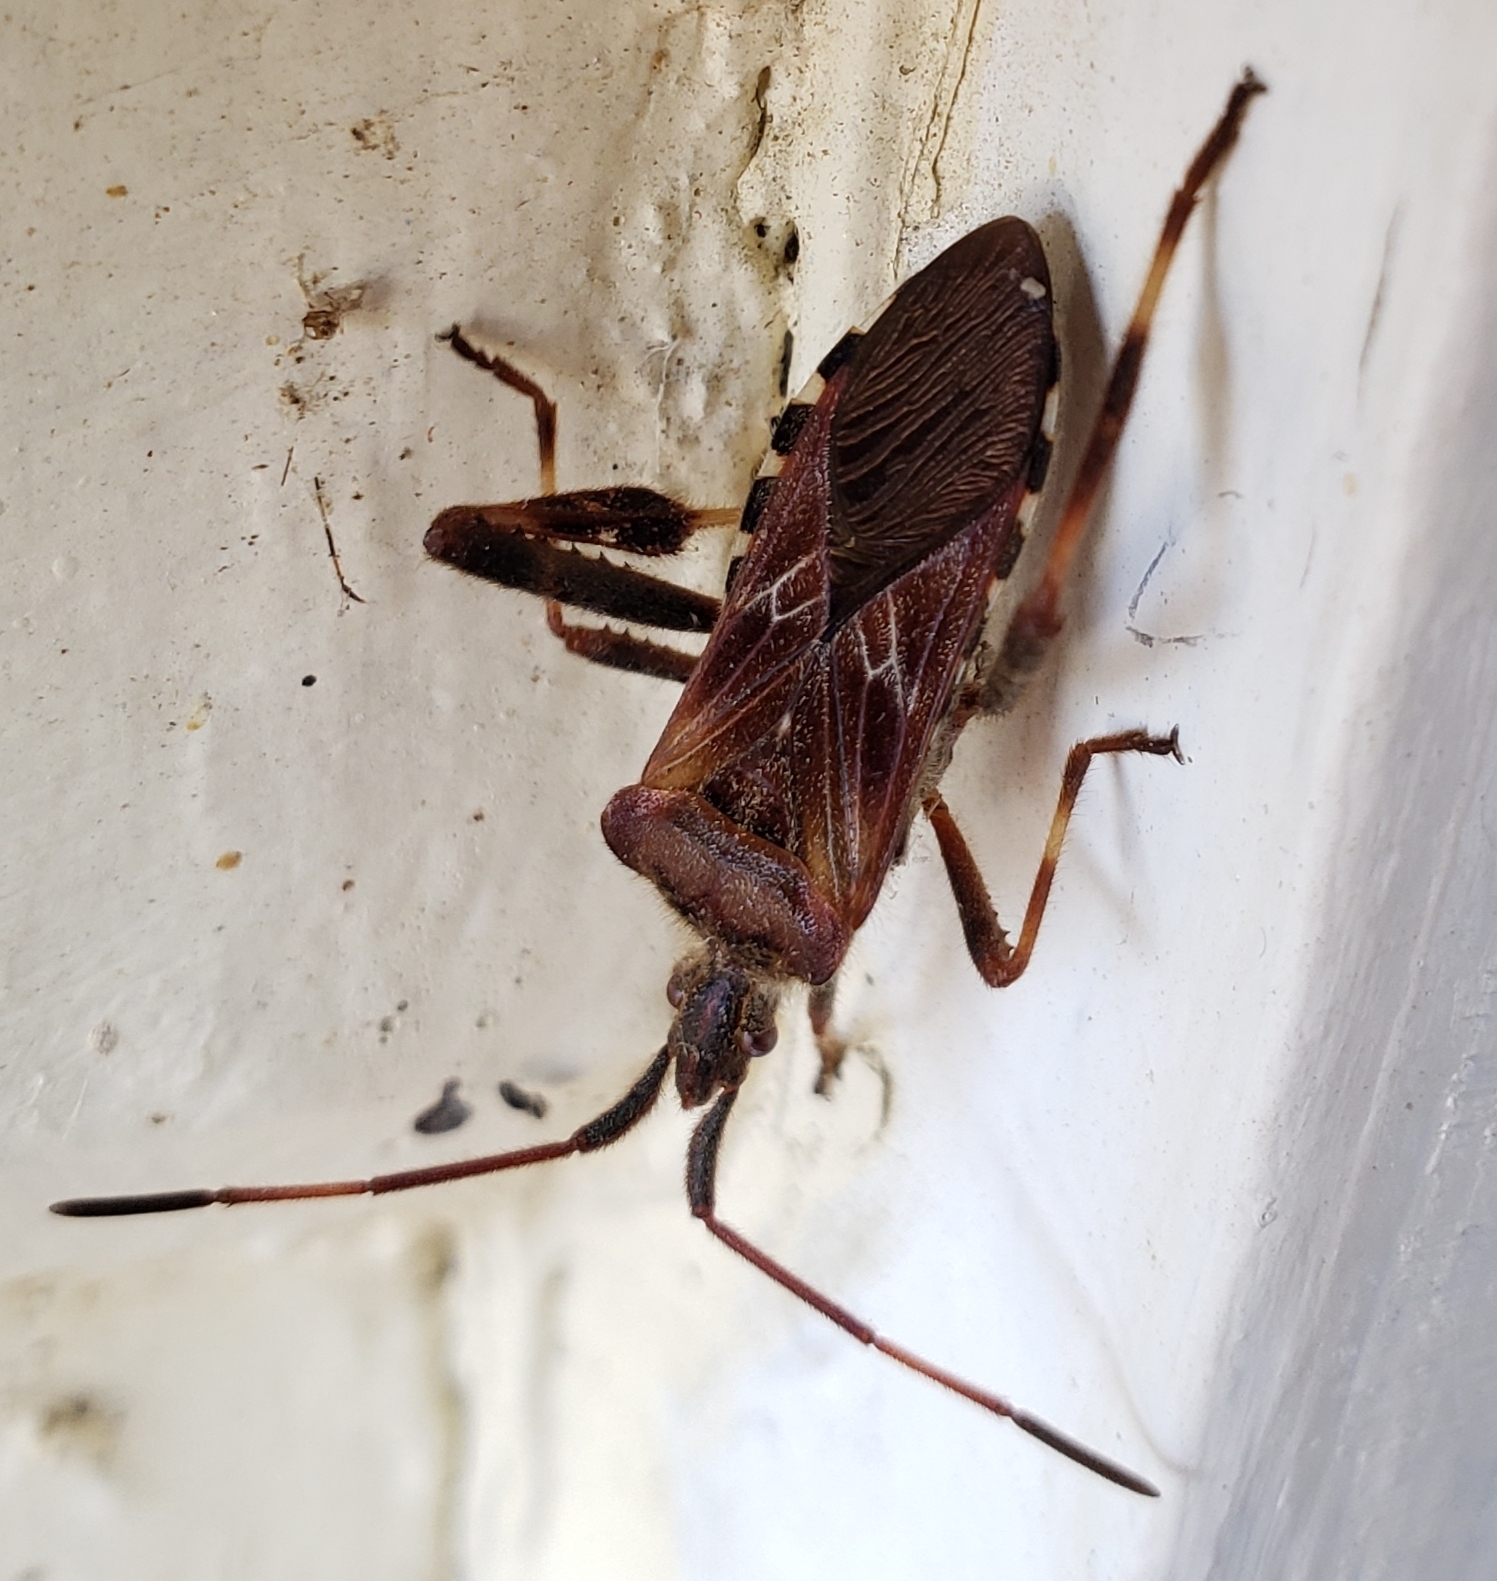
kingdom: Animalia
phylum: Arthropoda
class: Insecta
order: Hemiptera
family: Coreidae
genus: Leptoglossus
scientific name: Leptoglossus occidentalis
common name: Western conifer-seed bug
